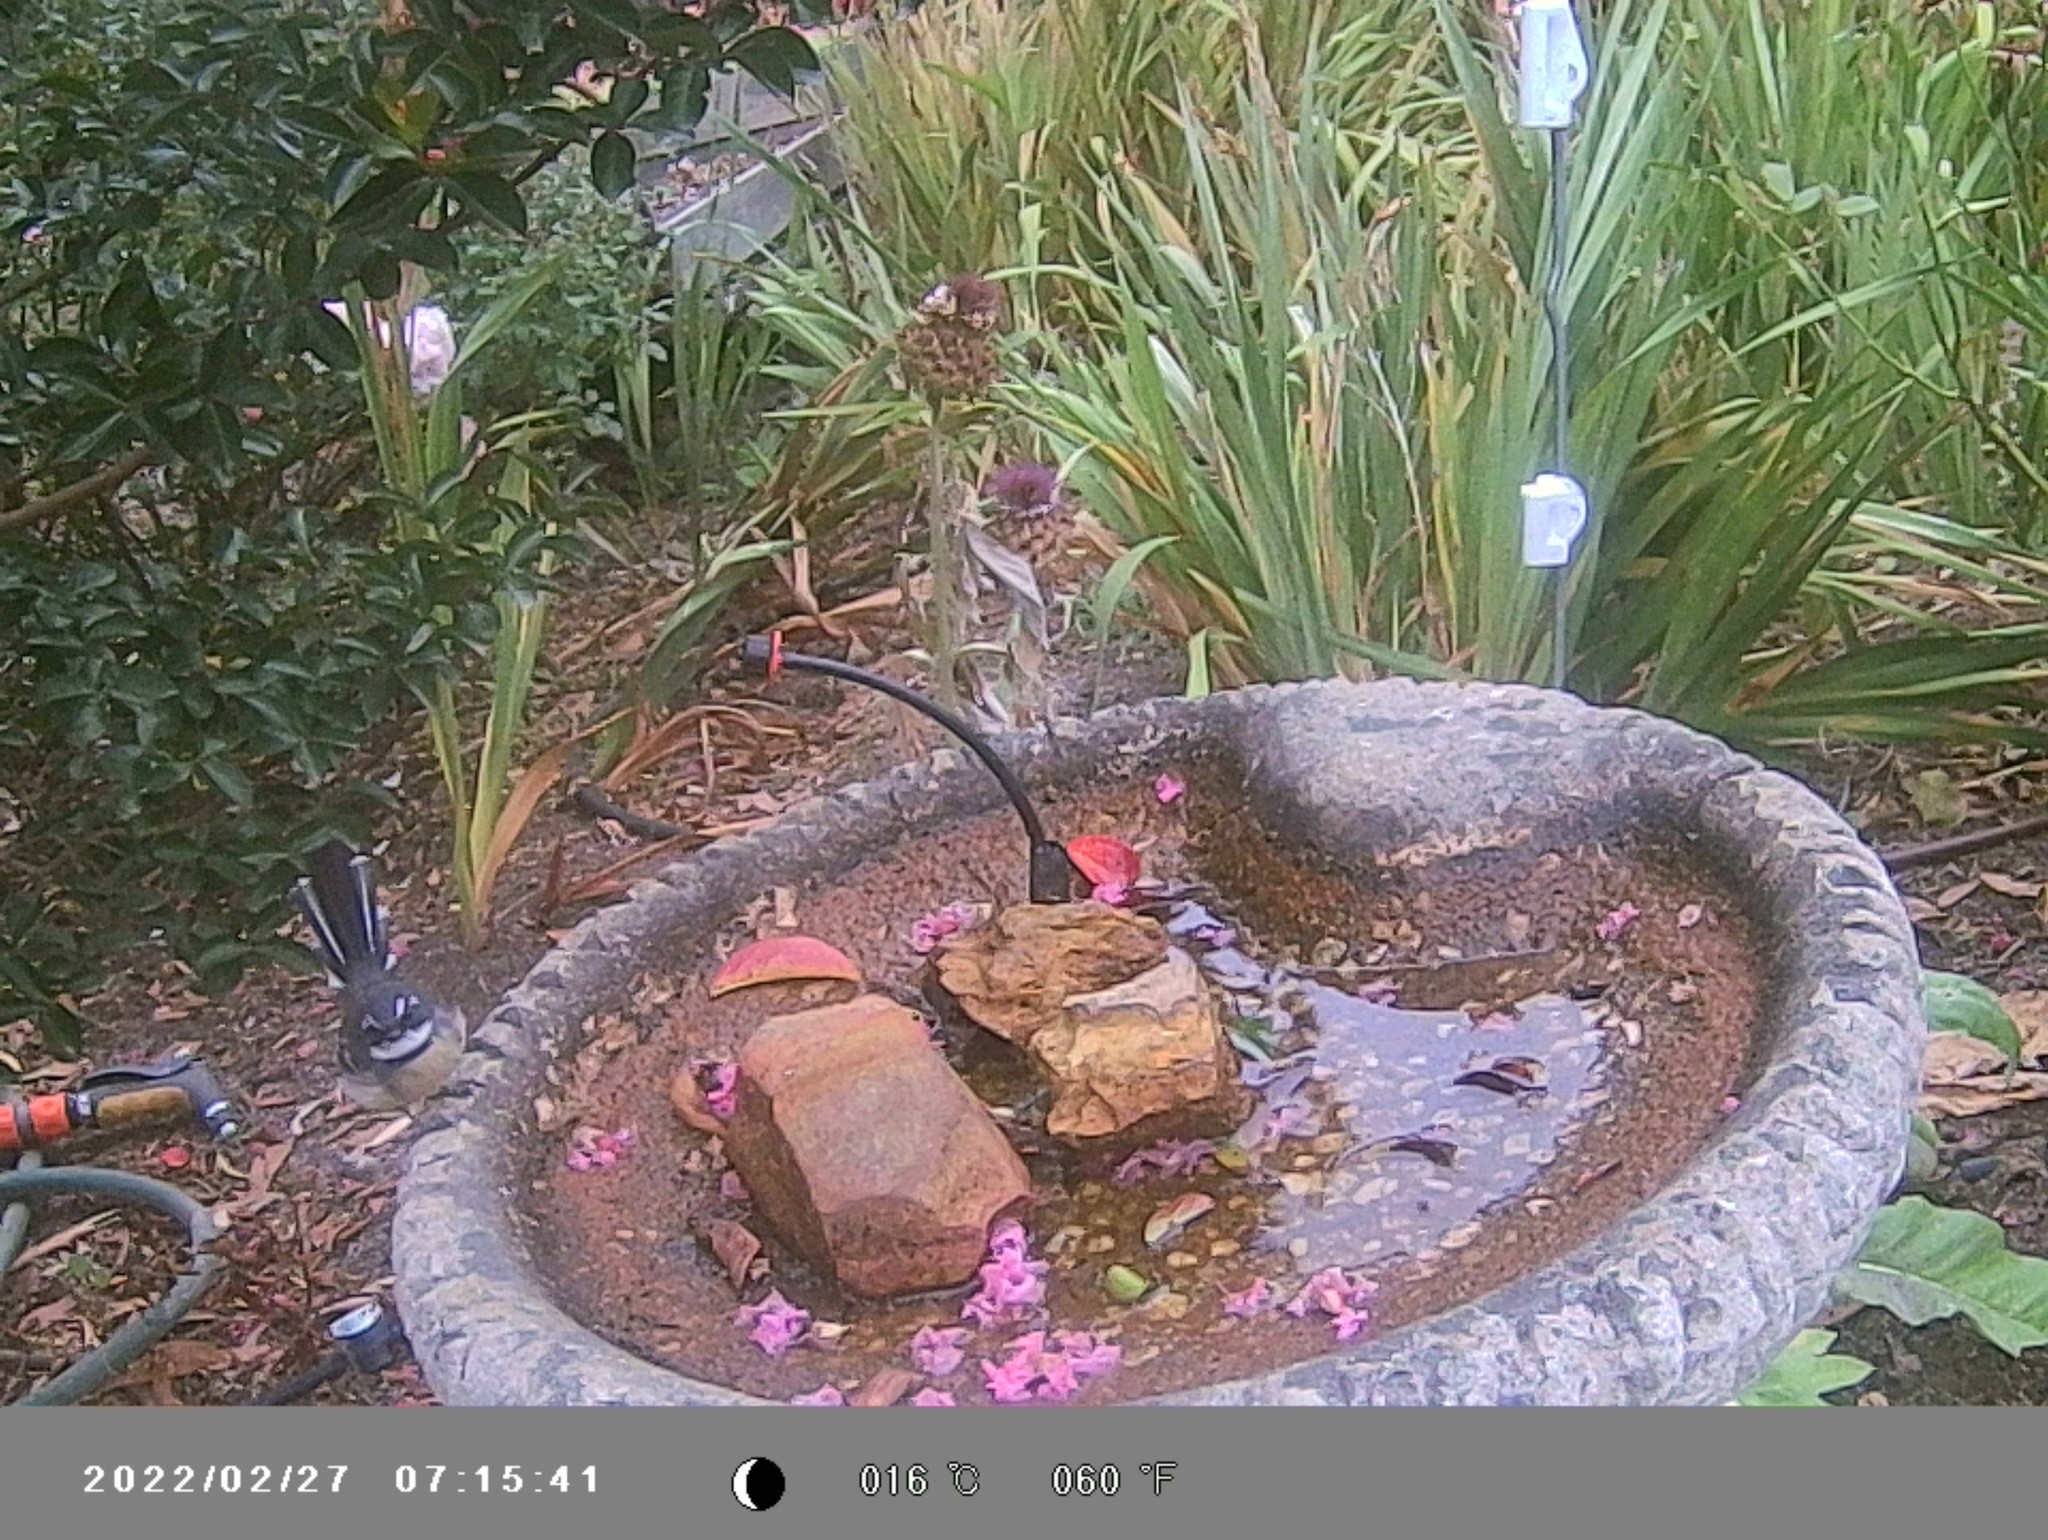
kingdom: Animalia
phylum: Chordata
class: Aves
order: Passeriformes
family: Rhipiduridae
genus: Rhipidura
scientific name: Rhipidura albiscapa
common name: Grey fantail
